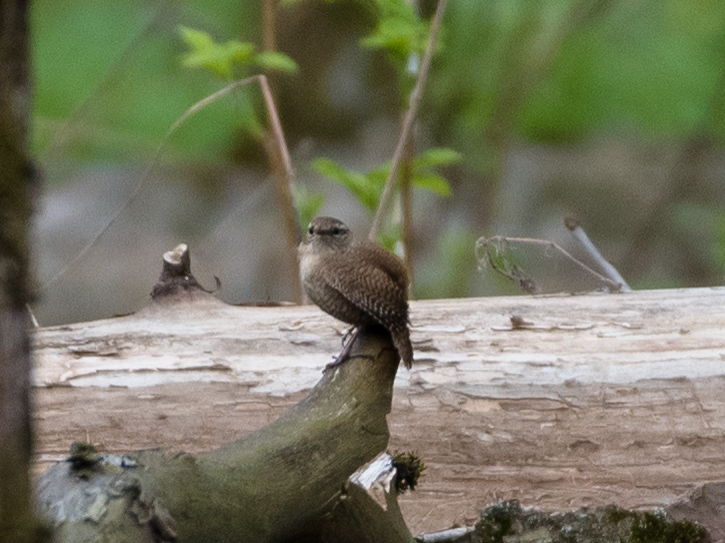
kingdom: Animalia
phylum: Chordata
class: Aves
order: Passeriformes
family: Troglodytidae
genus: Troglodytes
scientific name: Troglodytes troglodytes
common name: Eurasian wren
